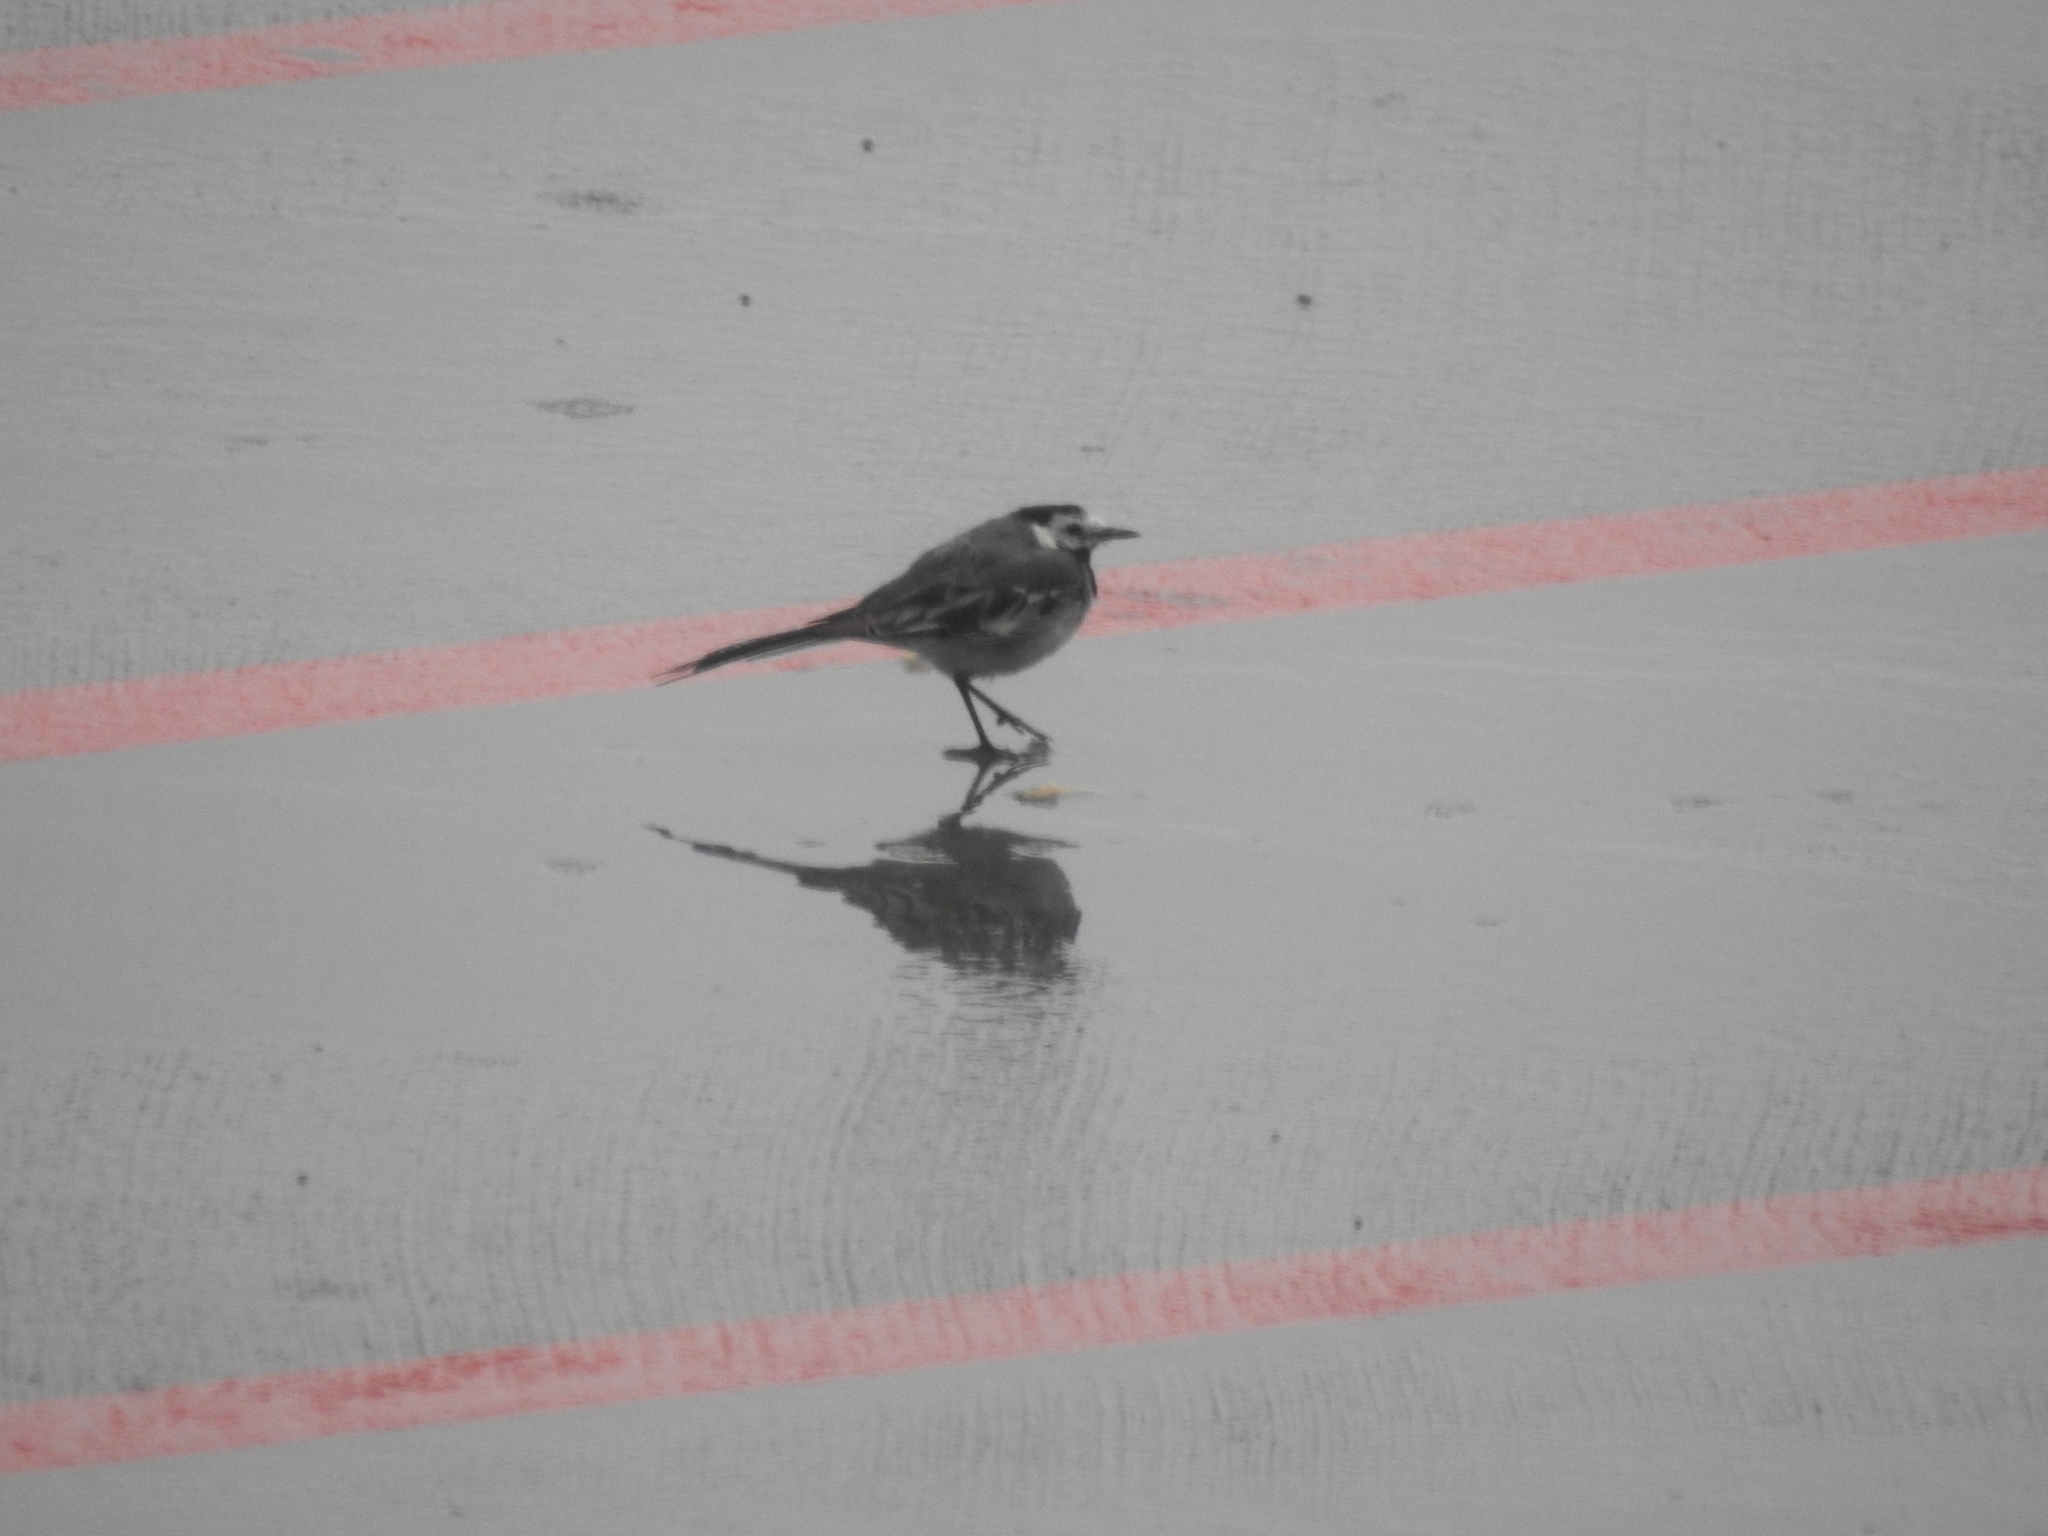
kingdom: Animalia
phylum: Chordata
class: Aves
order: Passeriformes
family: Motacillidae
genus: Motacilla
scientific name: Motacilla alba
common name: White wagtail
